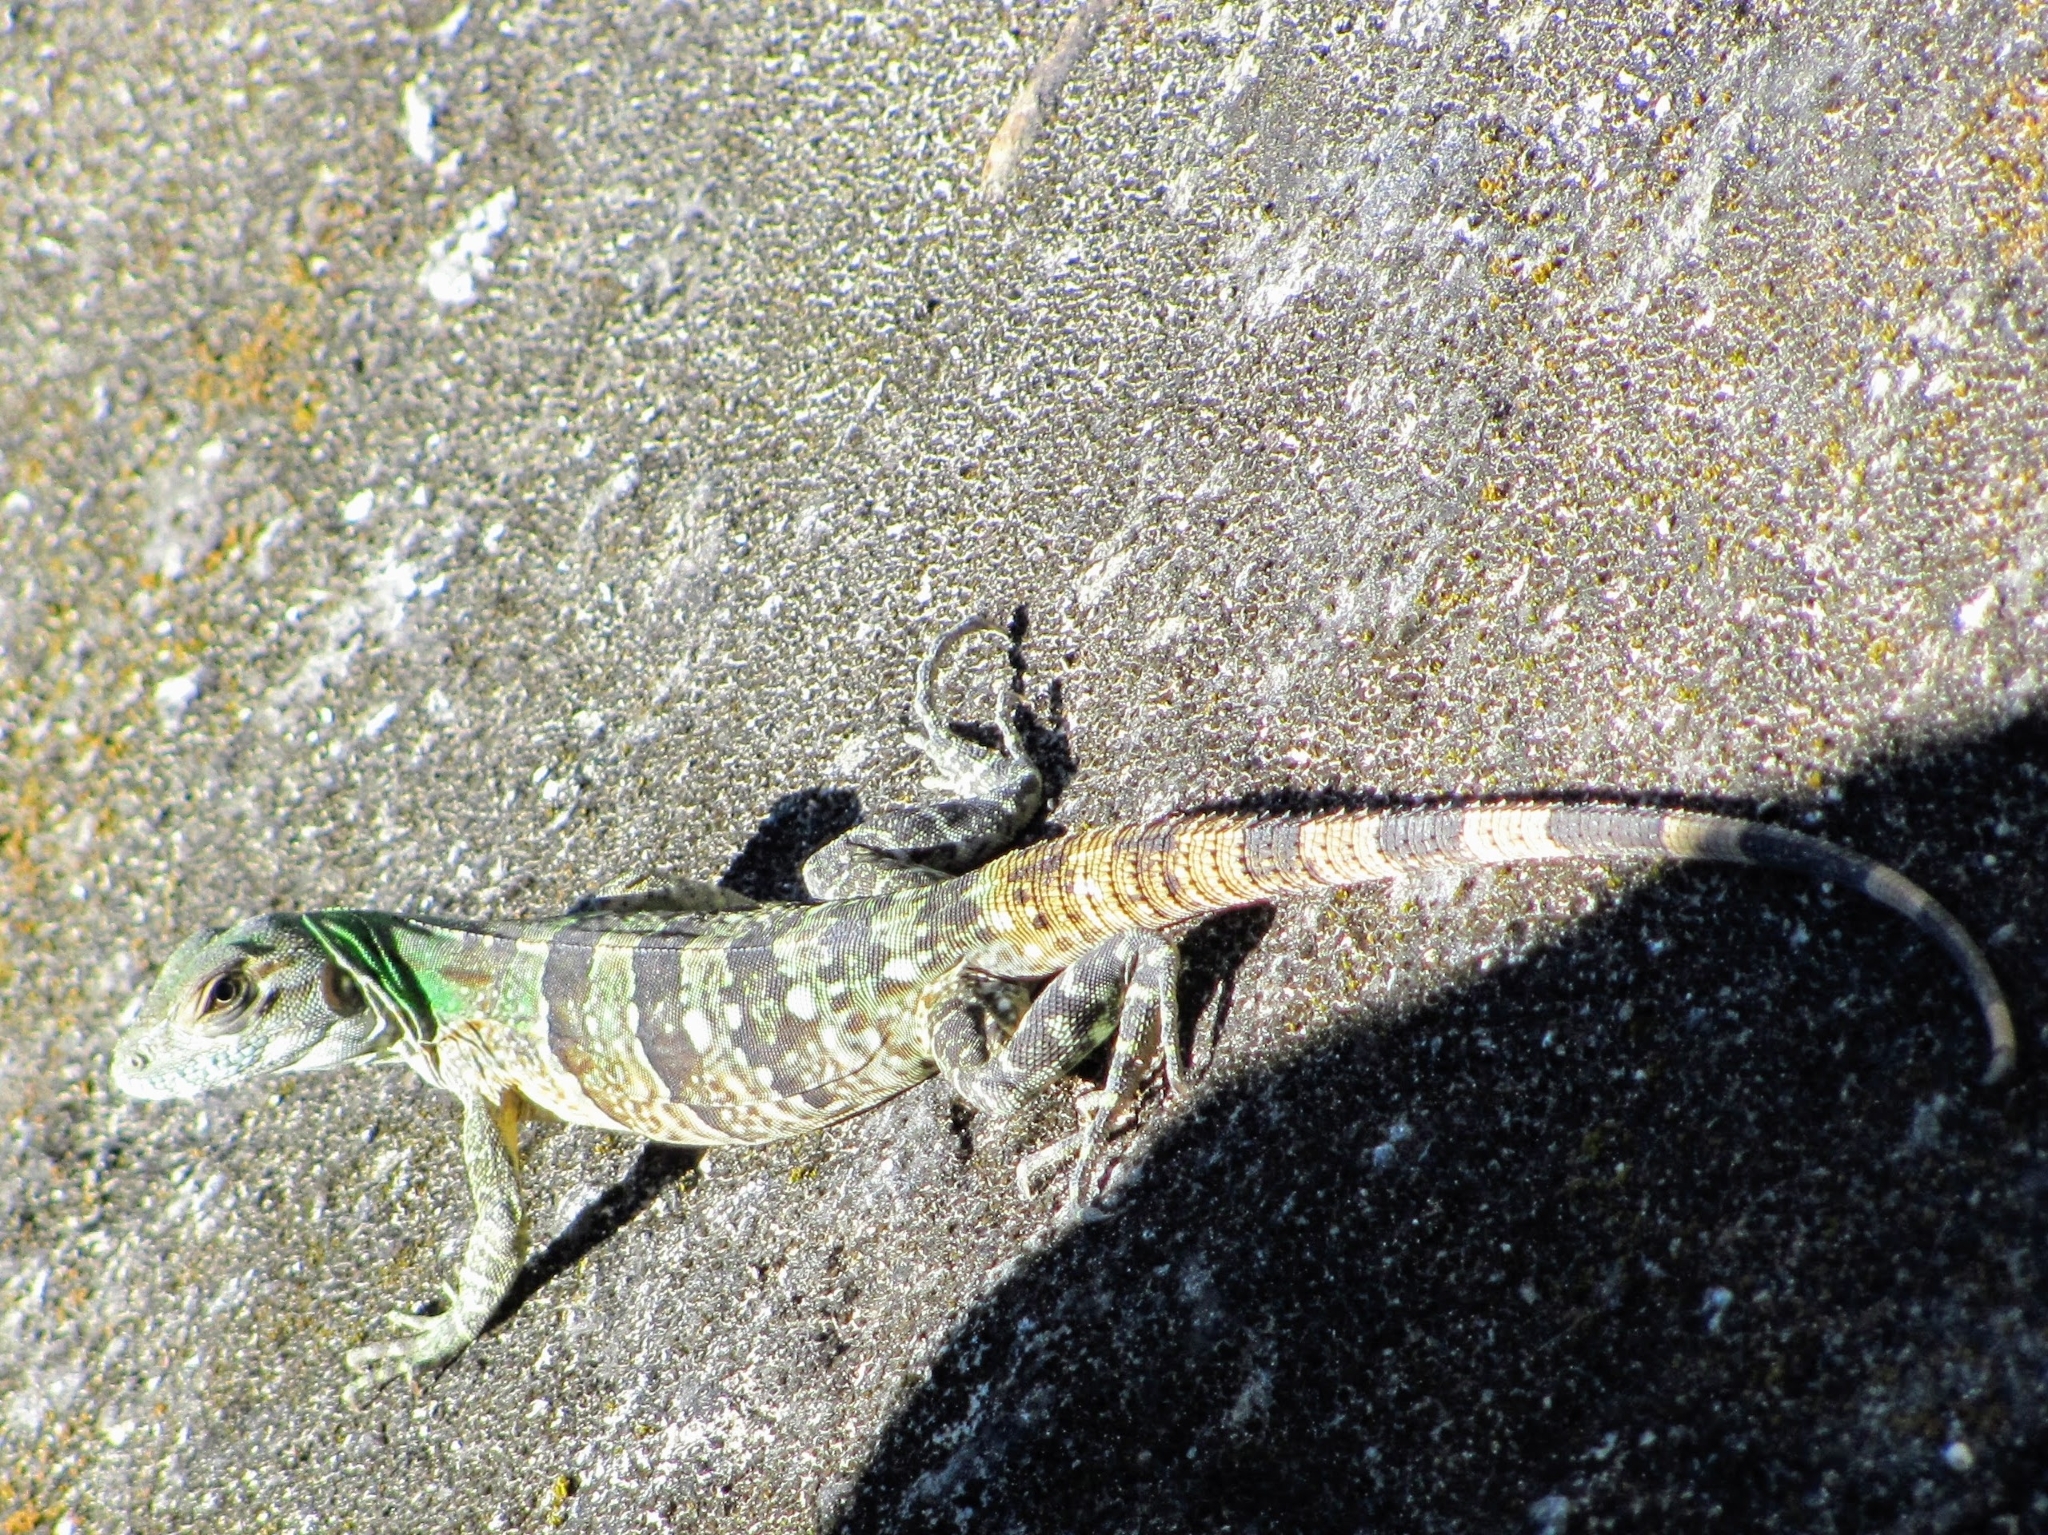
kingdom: Animalia
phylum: Chordata
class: Squamata
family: Iguanidae
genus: Ctenosaura
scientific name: Ctenosaura similis
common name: Black spiny-tailed iguana
